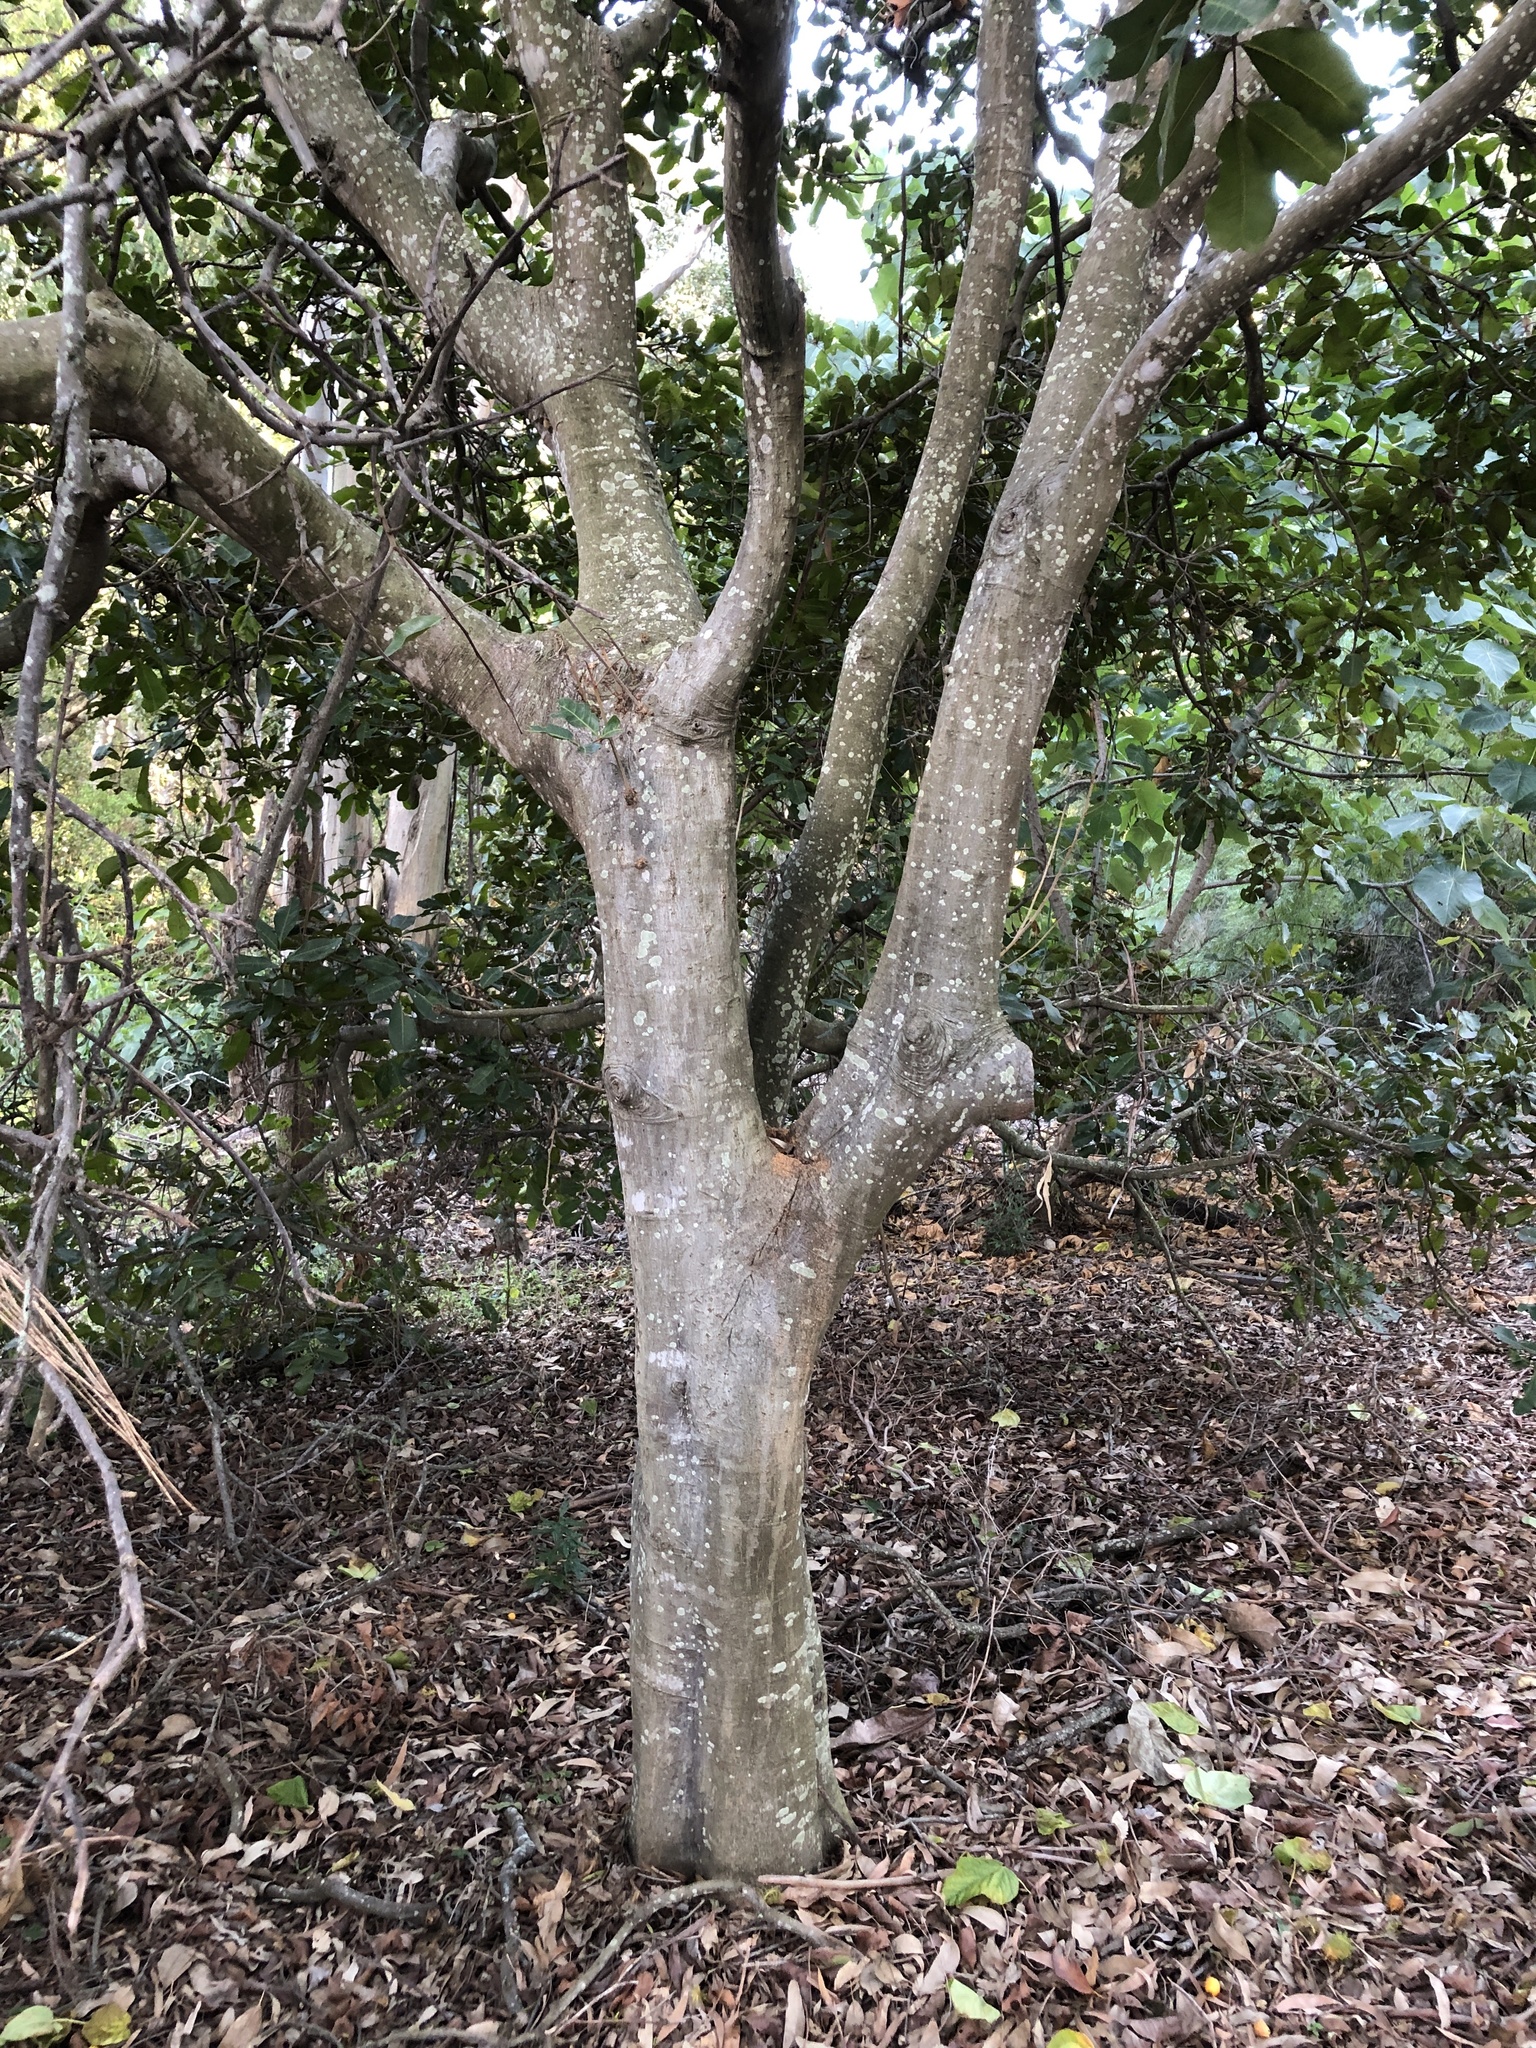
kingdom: Plantae
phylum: Tracheophyta
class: Magnoliopsida
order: Sapindales
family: Sapindaceae
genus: Cupaniopsis
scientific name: Cupaniopsis anacardioides
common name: Carrotwood
